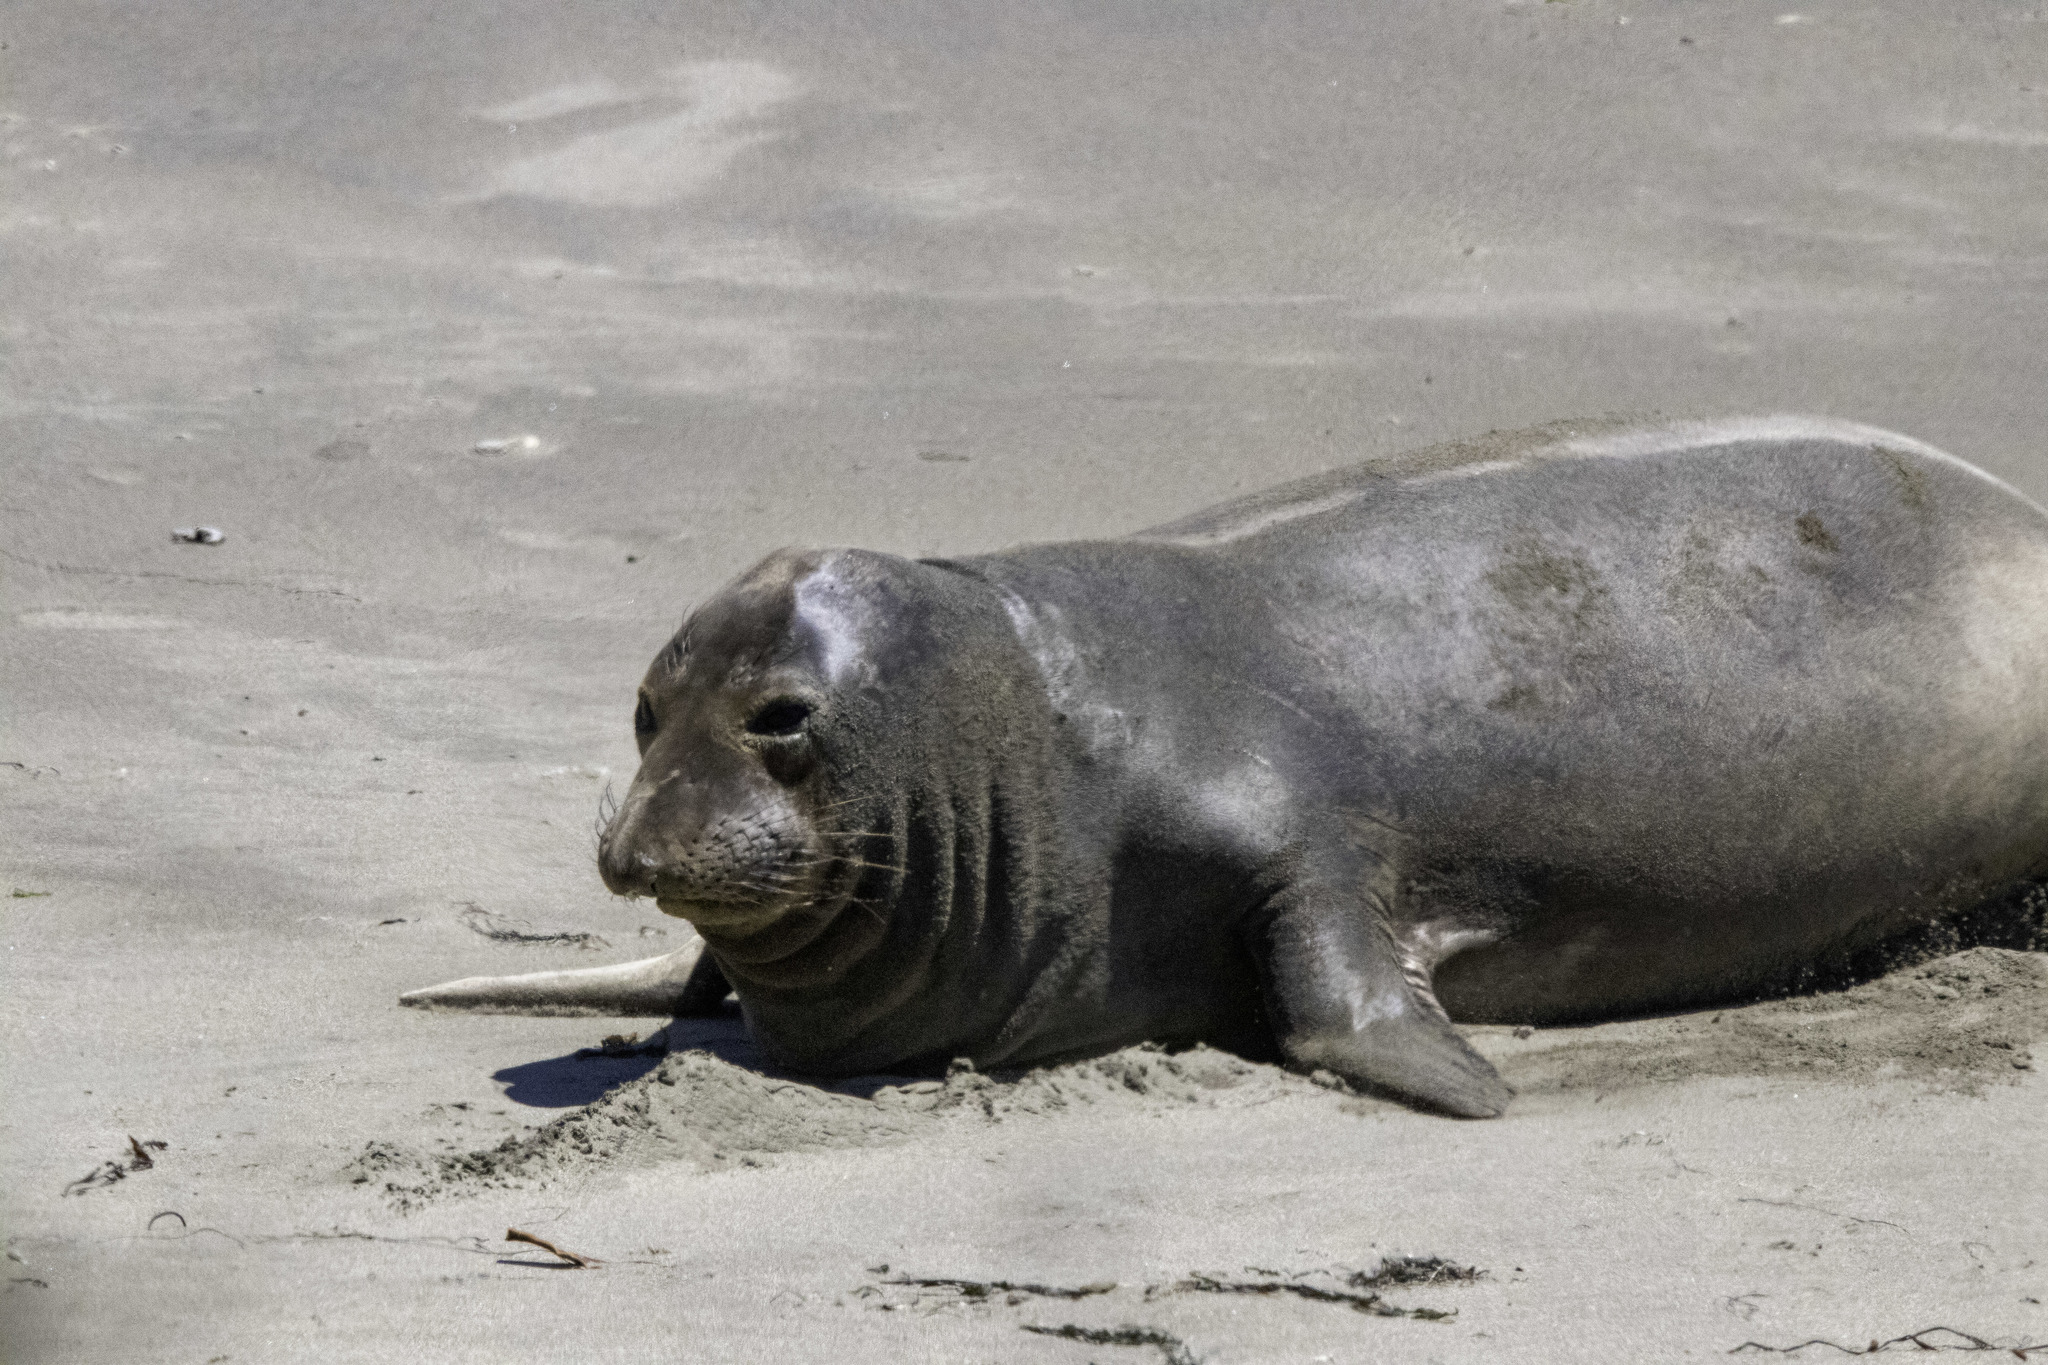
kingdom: Animalia
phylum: Chordata
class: Mammalia
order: Carnivora
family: Phocidae
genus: Mirounga
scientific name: Mirounga angustirostris
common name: Northern elephant seal
